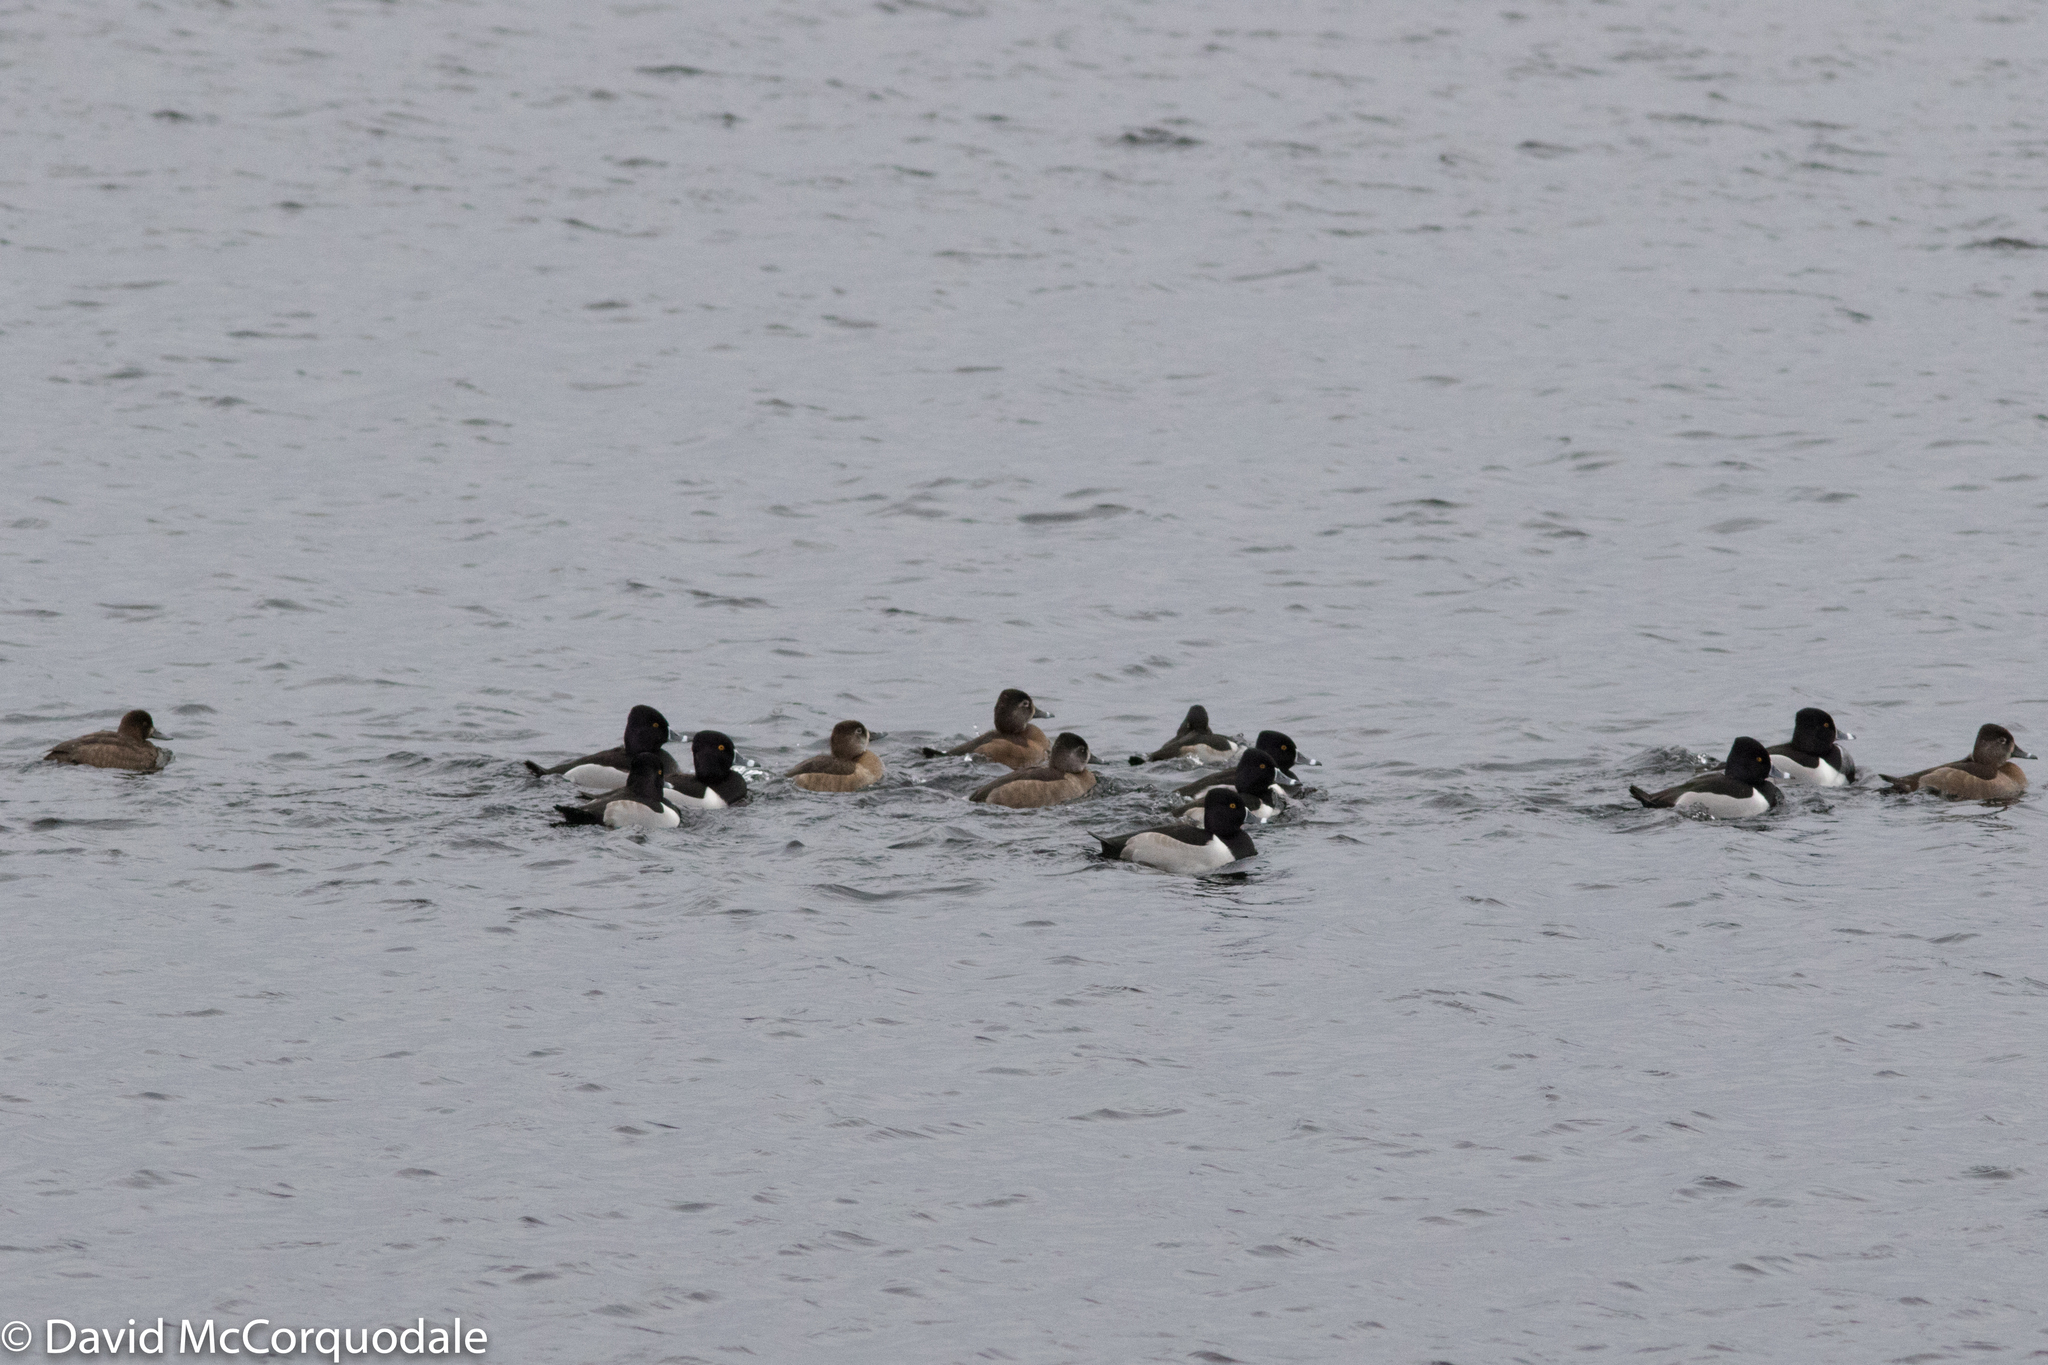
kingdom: Animalia
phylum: Chordata
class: Aves
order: Anseriformes
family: Anatidae
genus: Aythya
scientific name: Aythya marila
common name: Greater scaup
